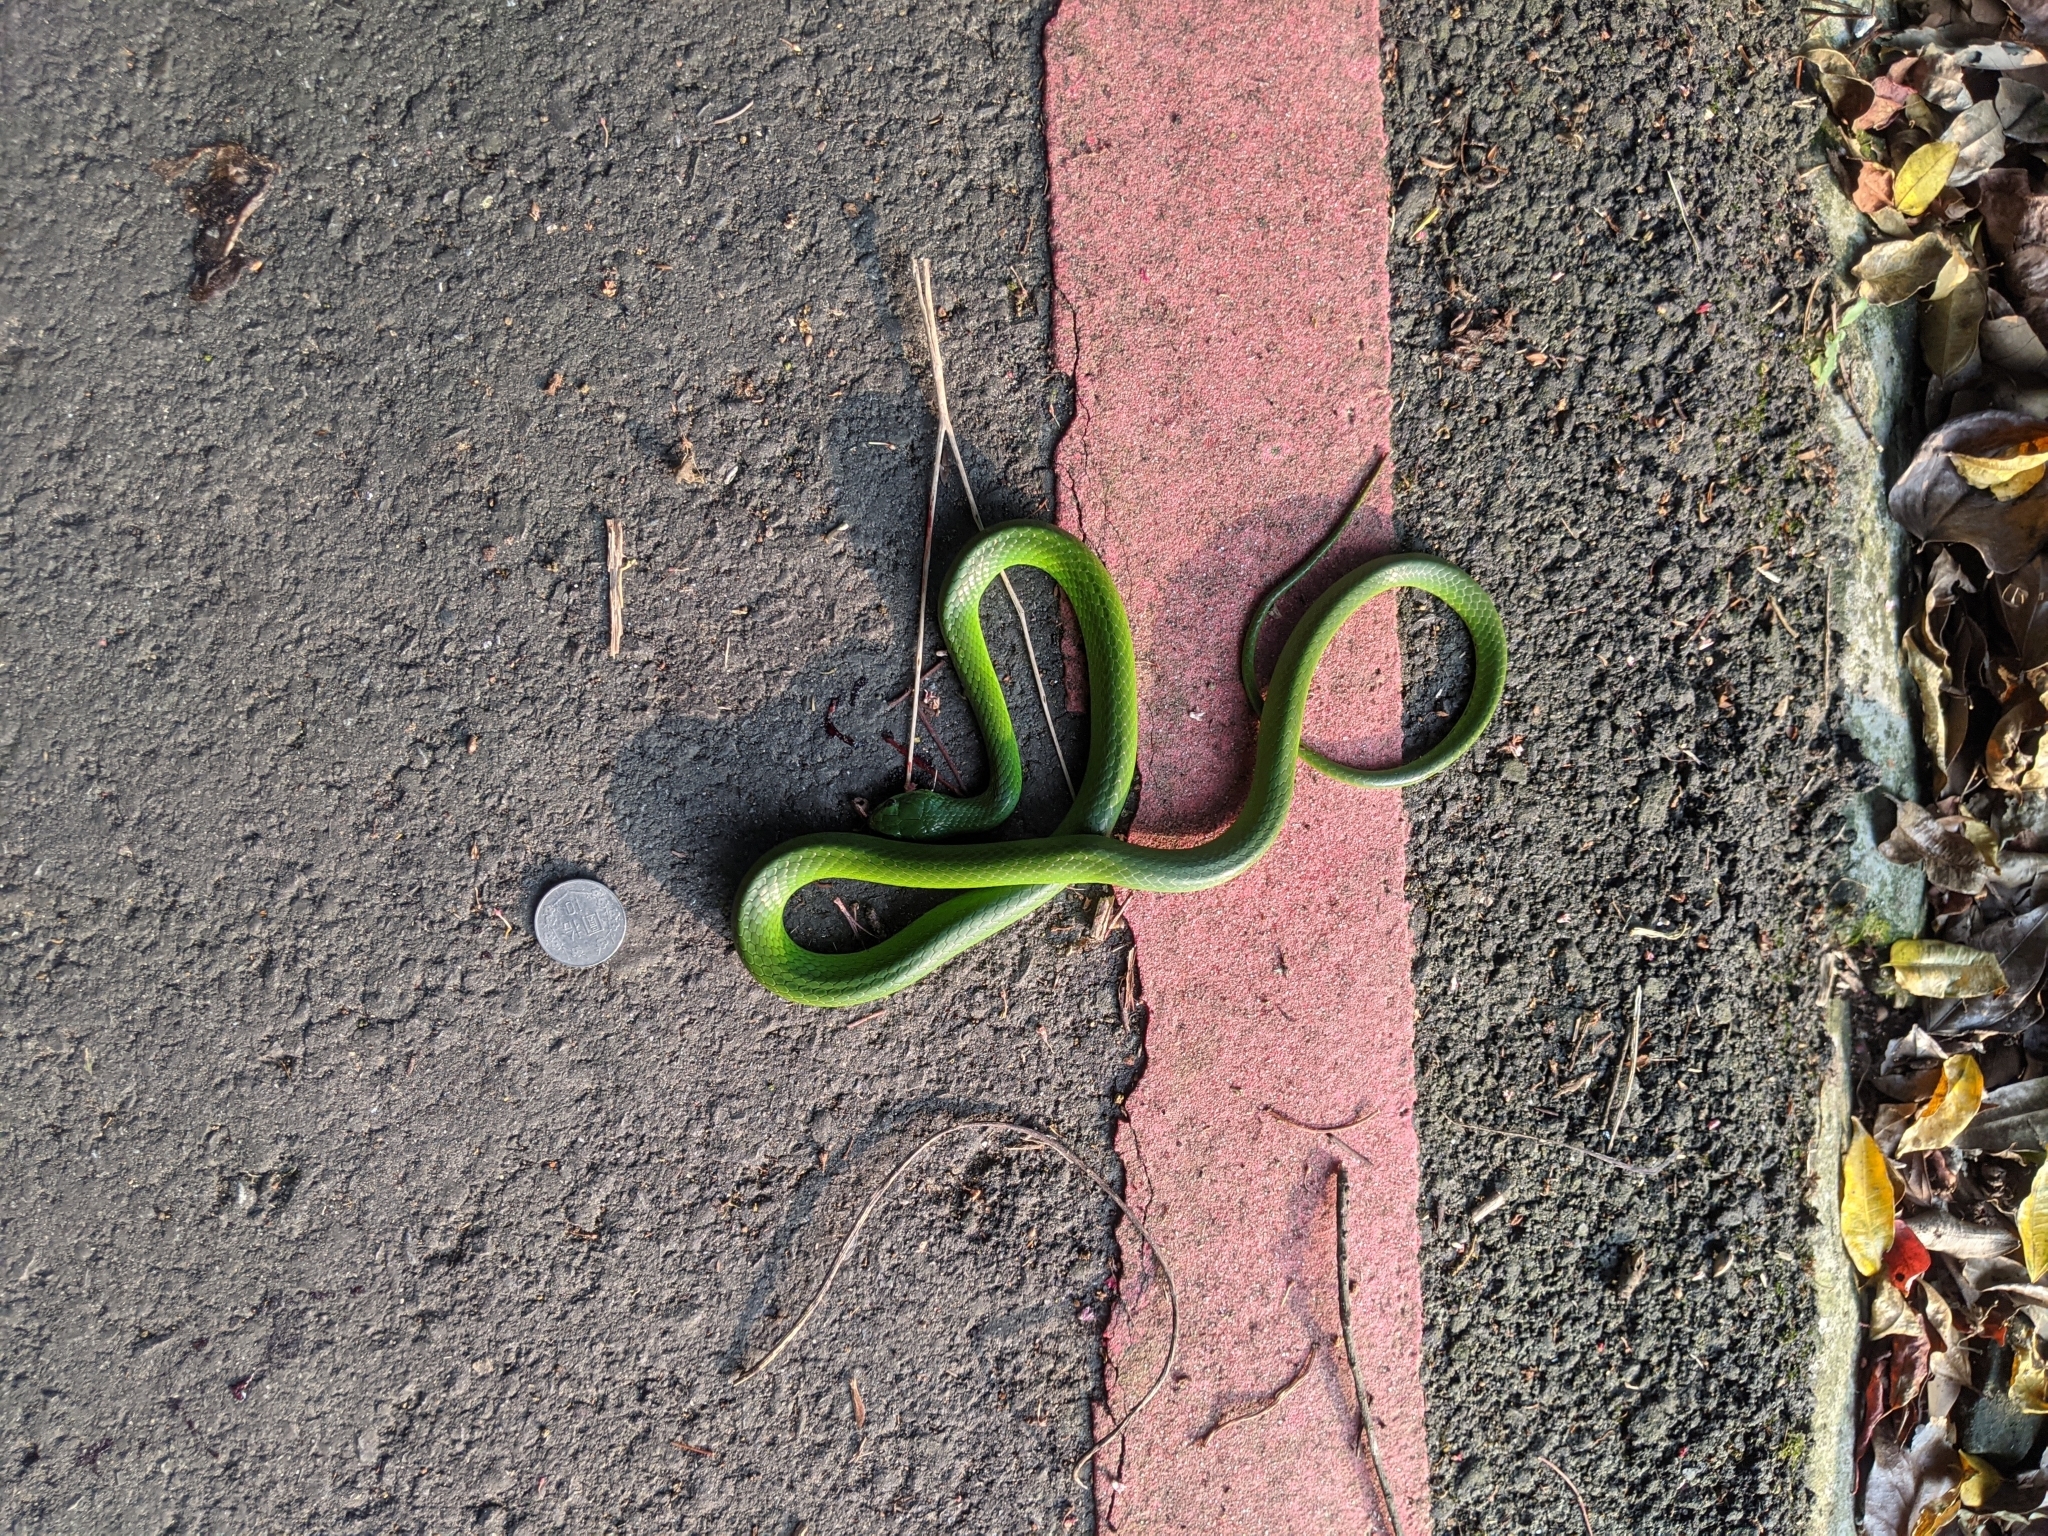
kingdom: Animalia
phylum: Chordata
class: Squamata
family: Colubridae
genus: Ptyas
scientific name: Ptyas major
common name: Chinese green snake
